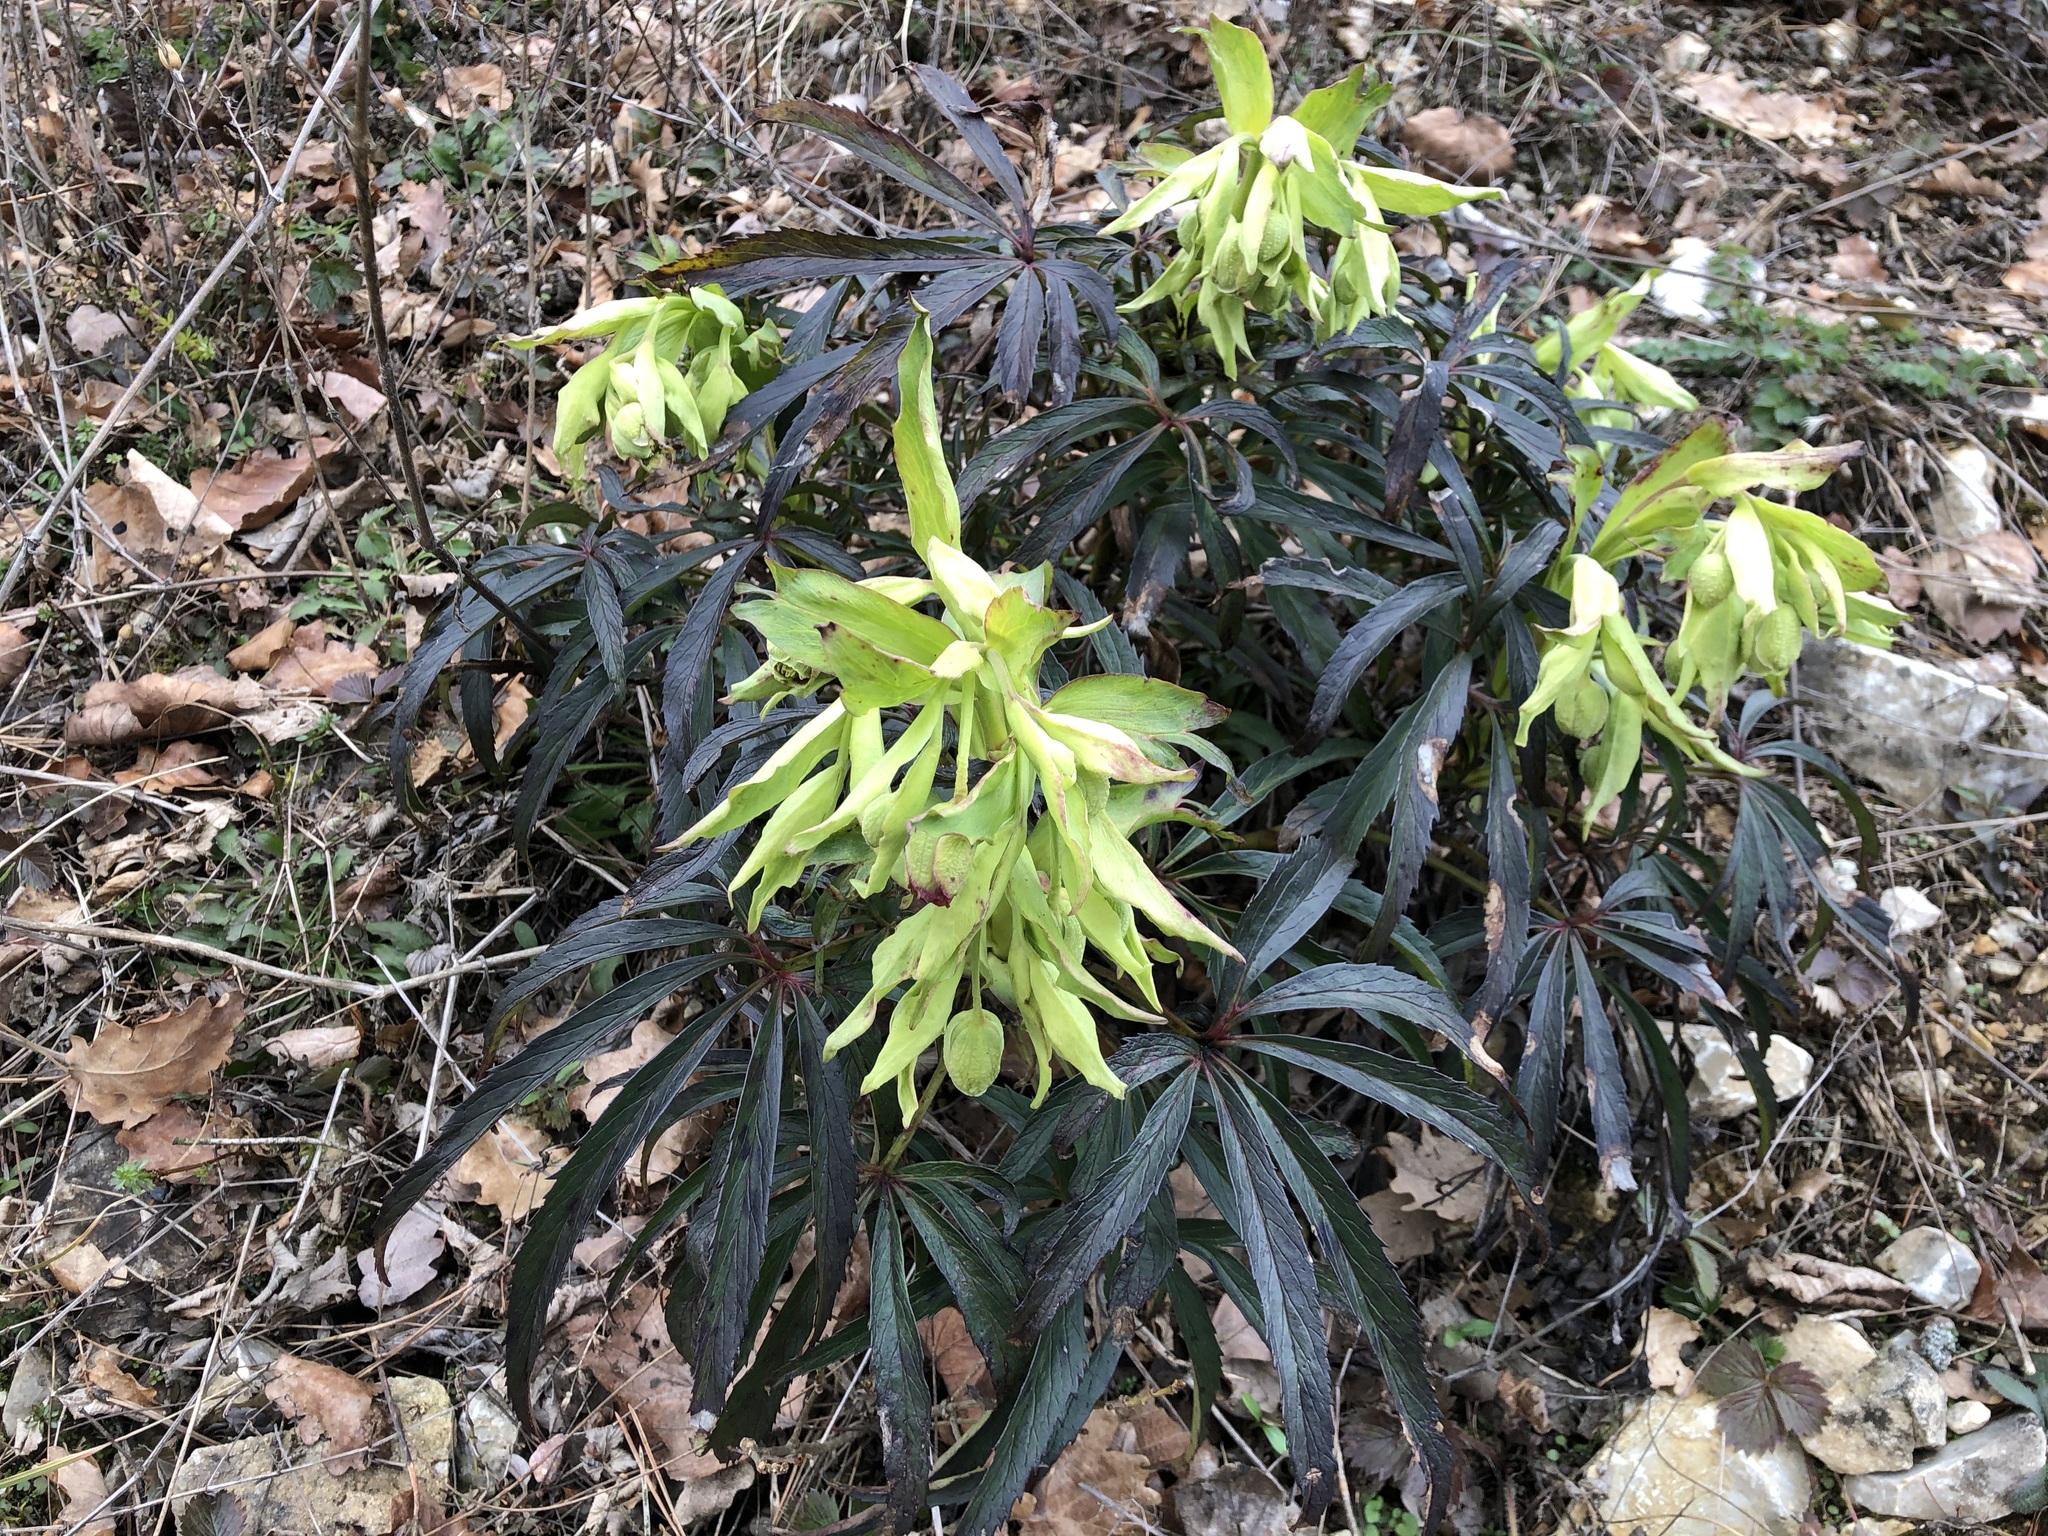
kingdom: Plantae
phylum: Tracheophyta
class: Magnoliopsida
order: Ranunculales
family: Ranunculaceae
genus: Helleborus
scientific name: Helleborus foetidus
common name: Stinking hellebore
